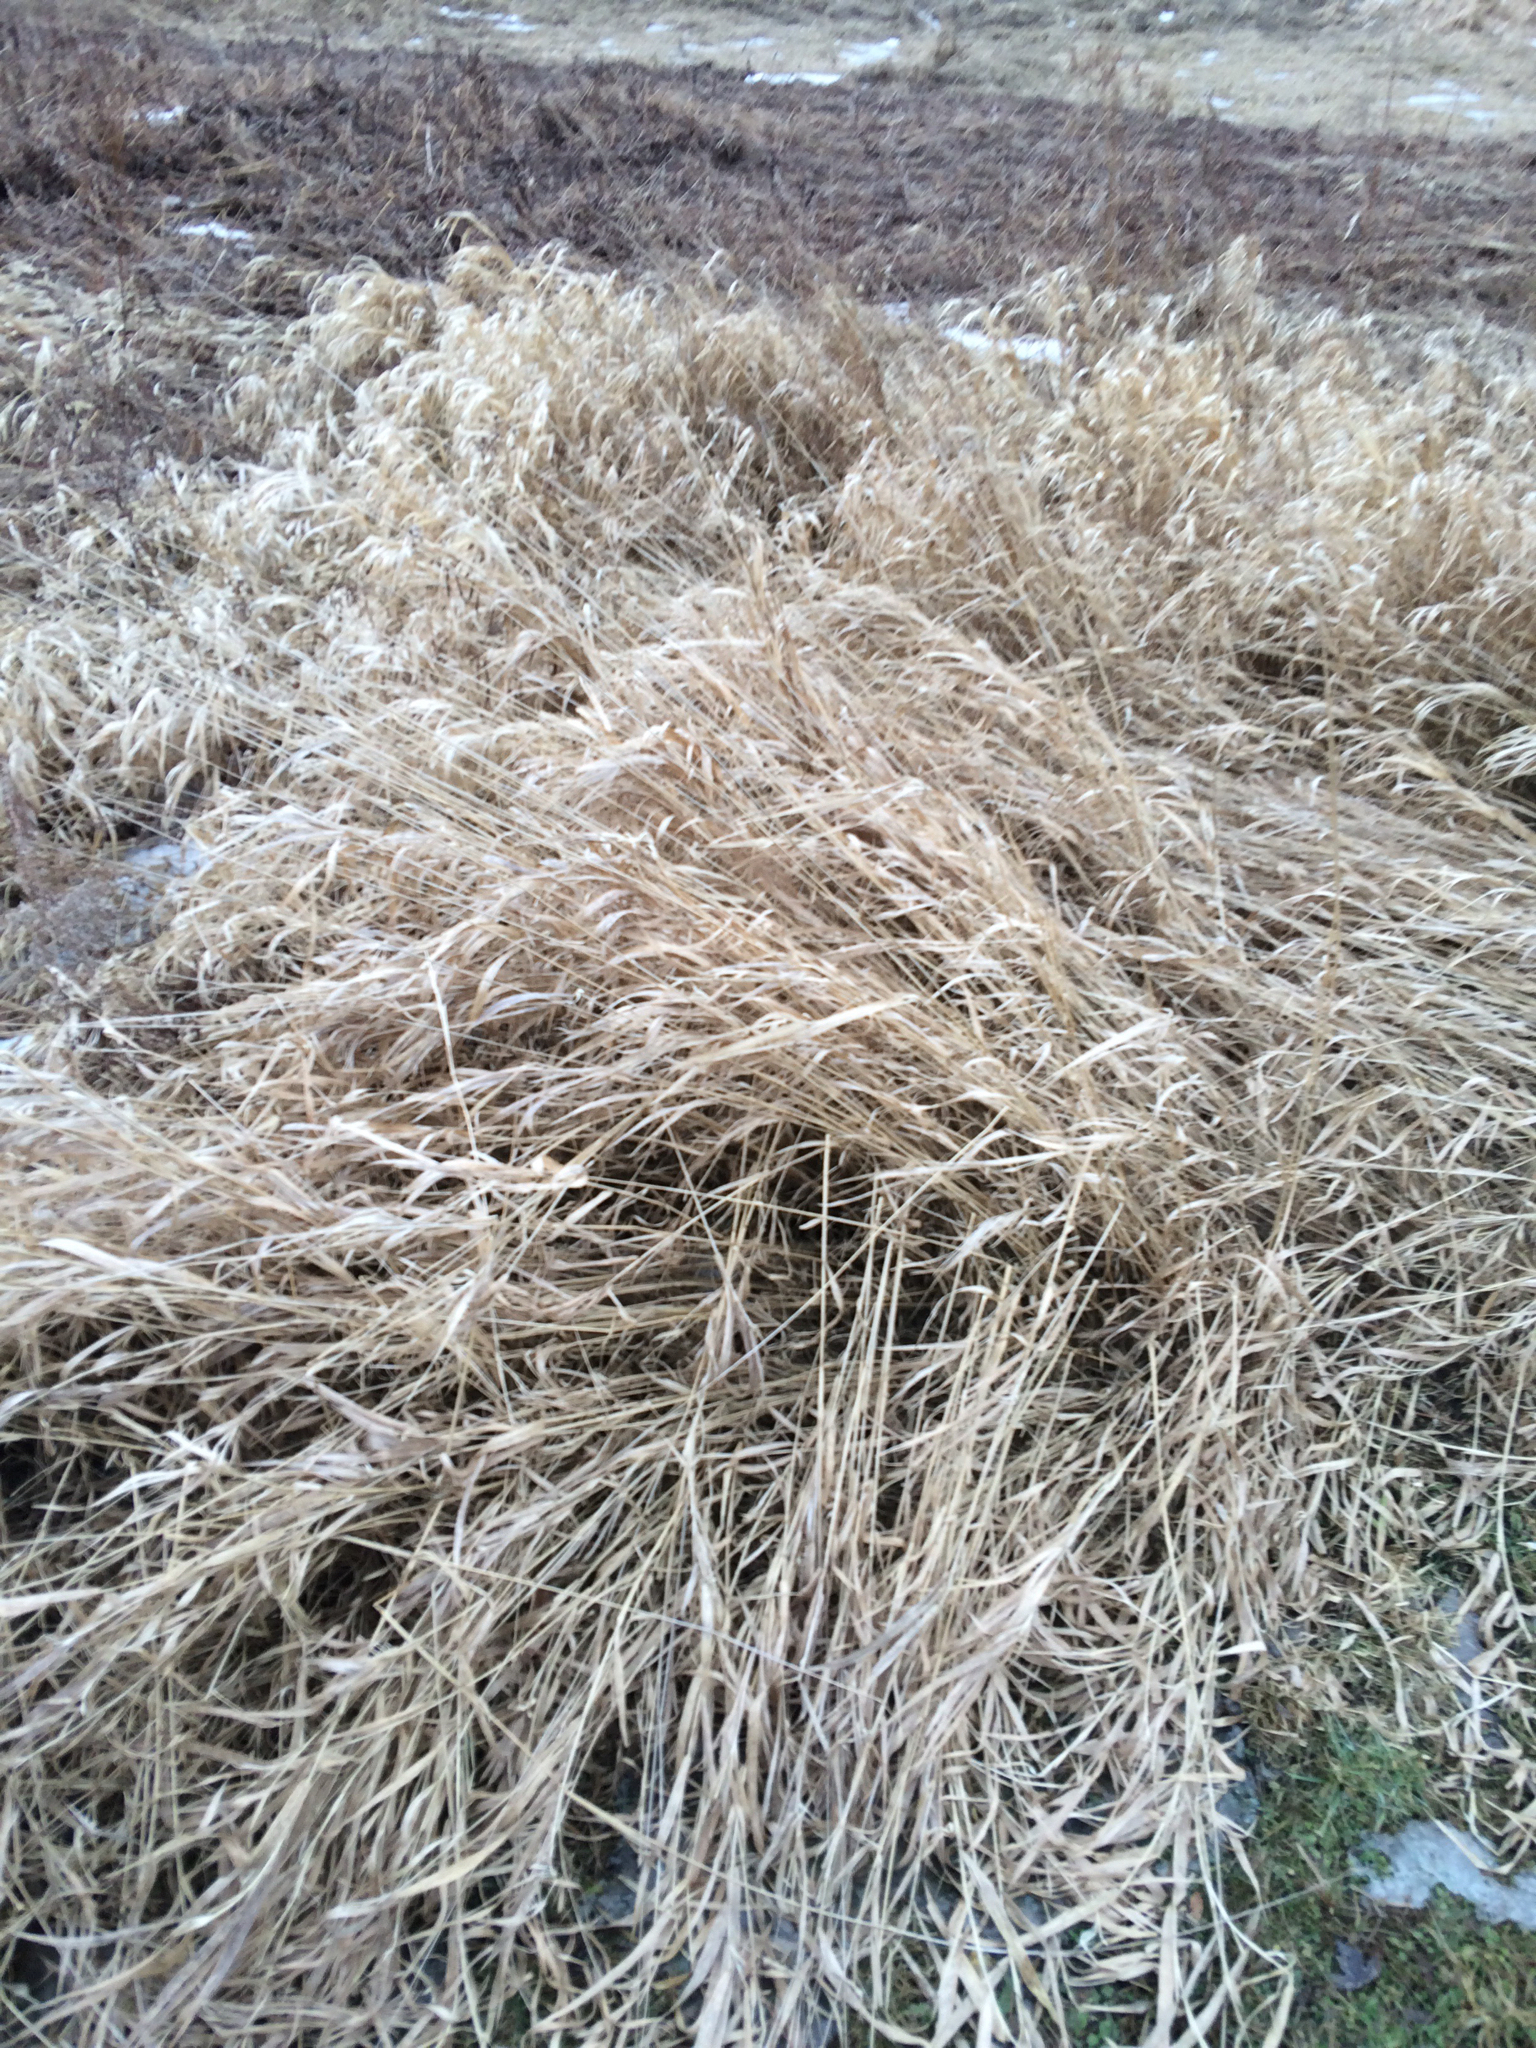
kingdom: Plantae
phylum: Tracheophyta
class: Liliopsida
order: Poales
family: Poaceae
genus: Phalaris
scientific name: Phalaris arundinacea
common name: Reed canary-grass
